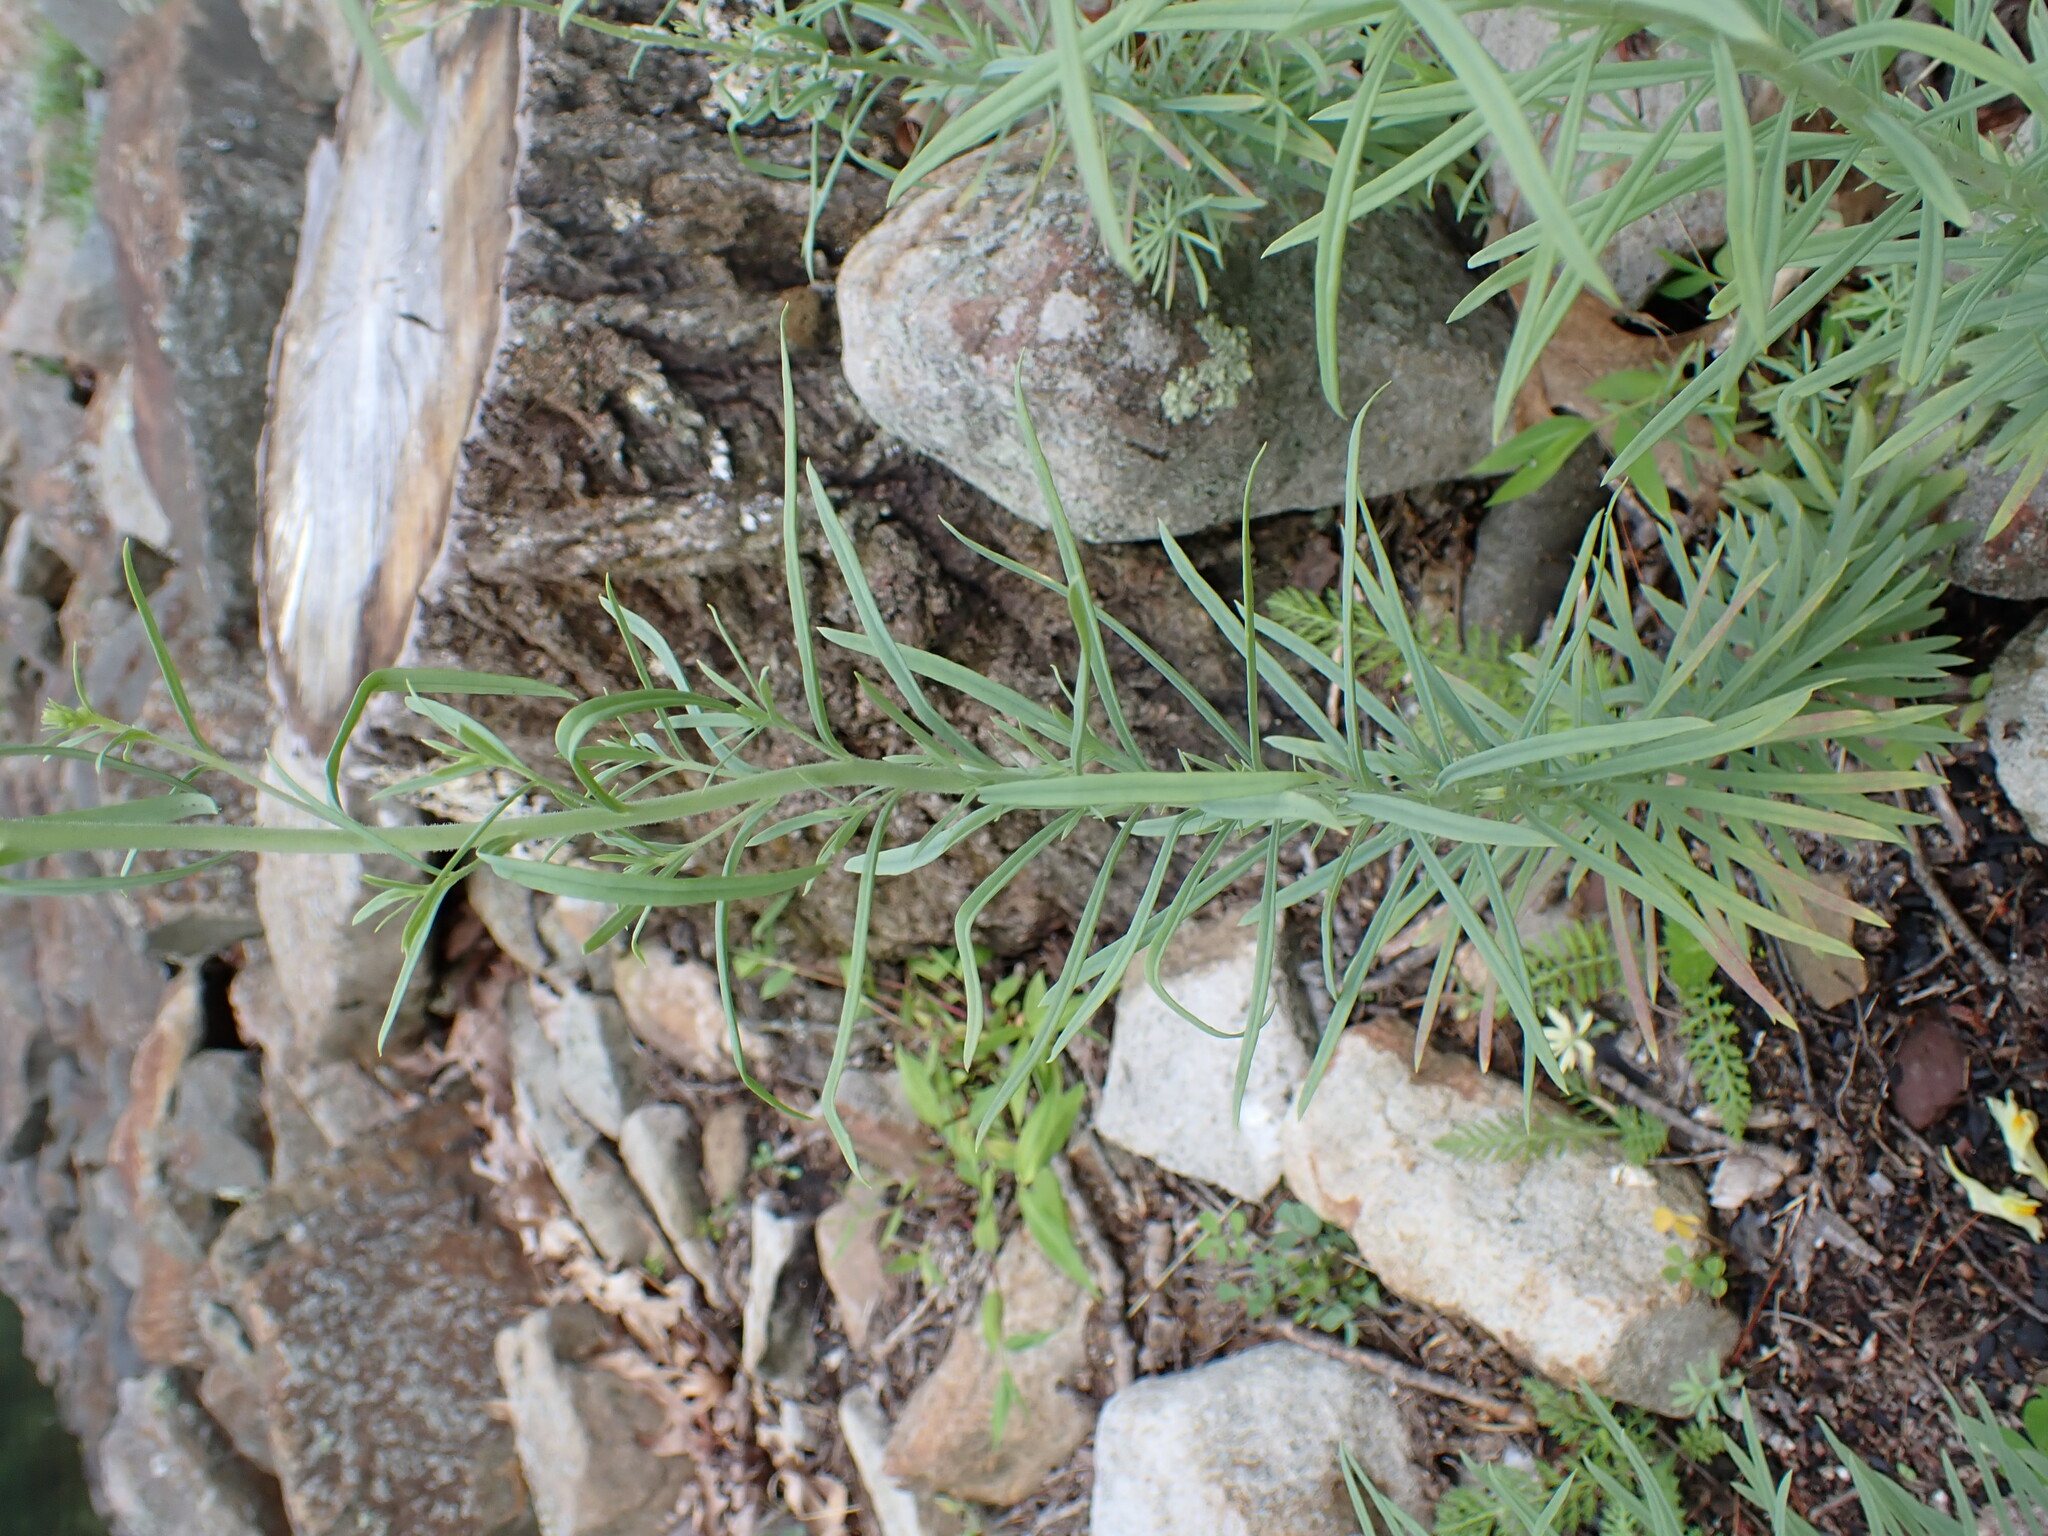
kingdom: Plantae
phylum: Tracheophyta
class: Magnoliopsida
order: Lamiales
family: Plantaginaceae
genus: Linaria
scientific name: Linaria vulgaris
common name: Butter and eggs
